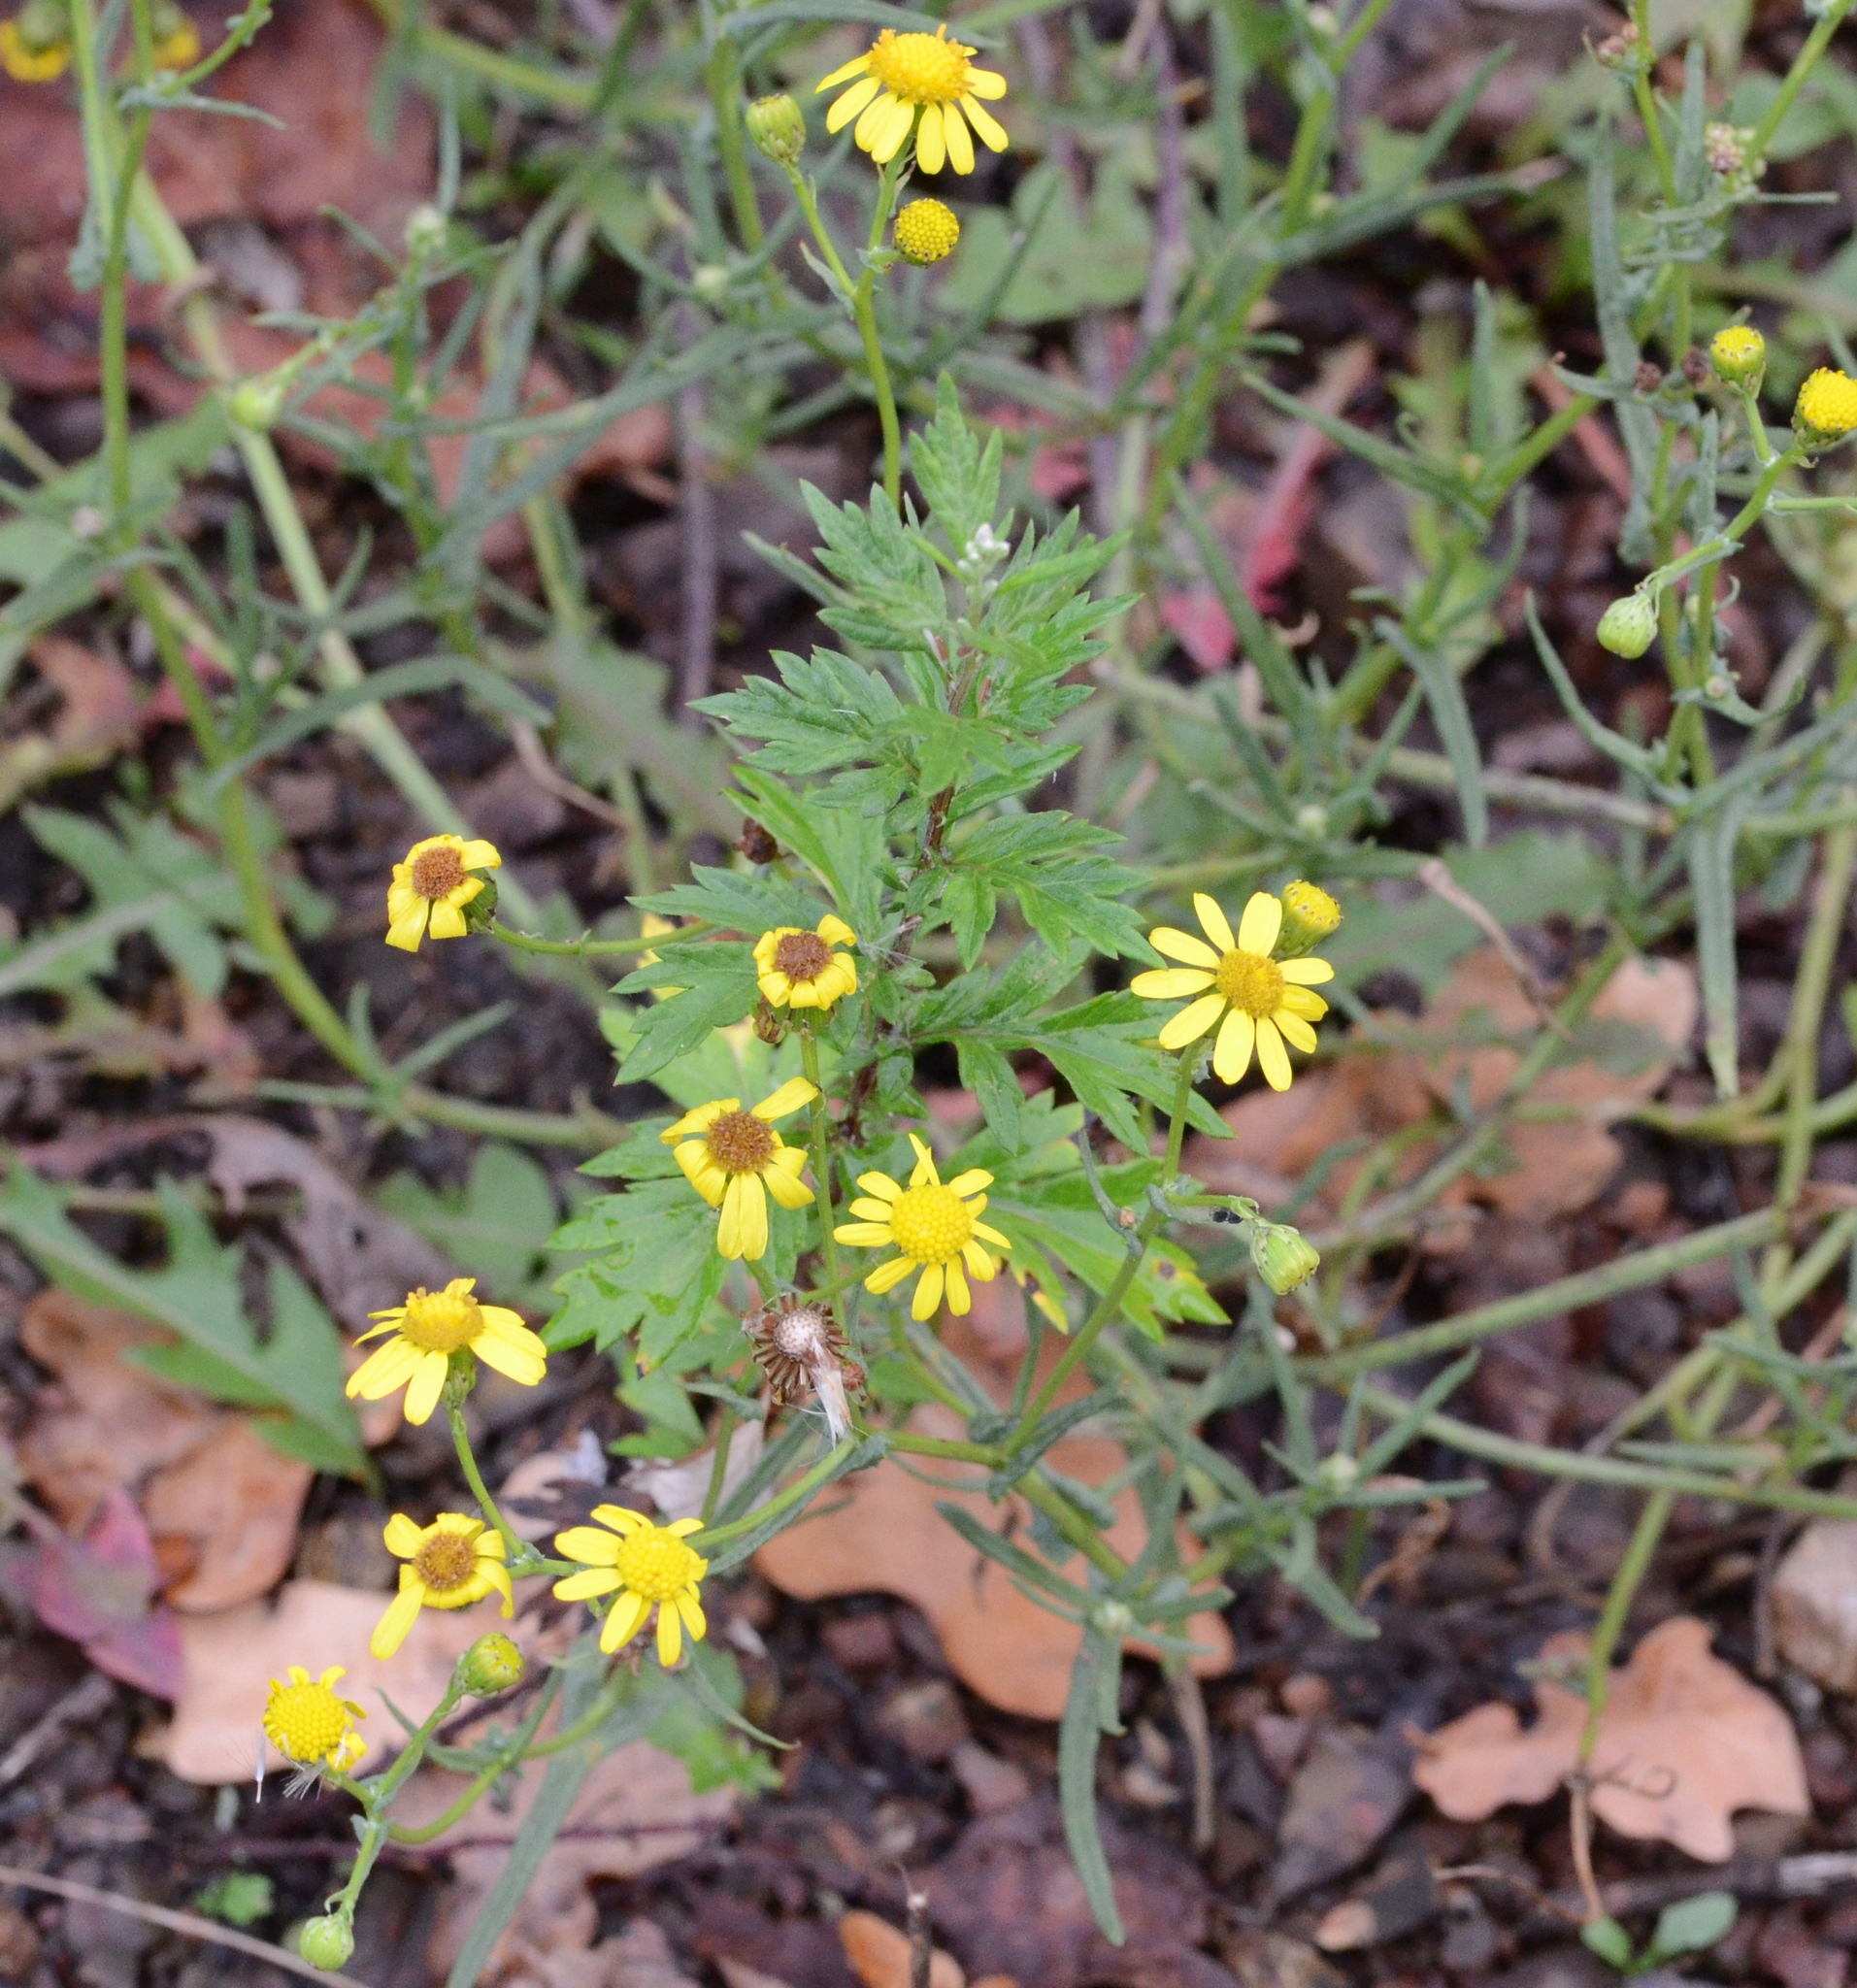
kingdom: Plantae
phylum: Tracheophyta
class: Magnoliopsida
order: Asterales
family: Asteraceae
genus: Senecio
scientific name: Senecio inaequidens
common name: Narrow-leaved ragwort
